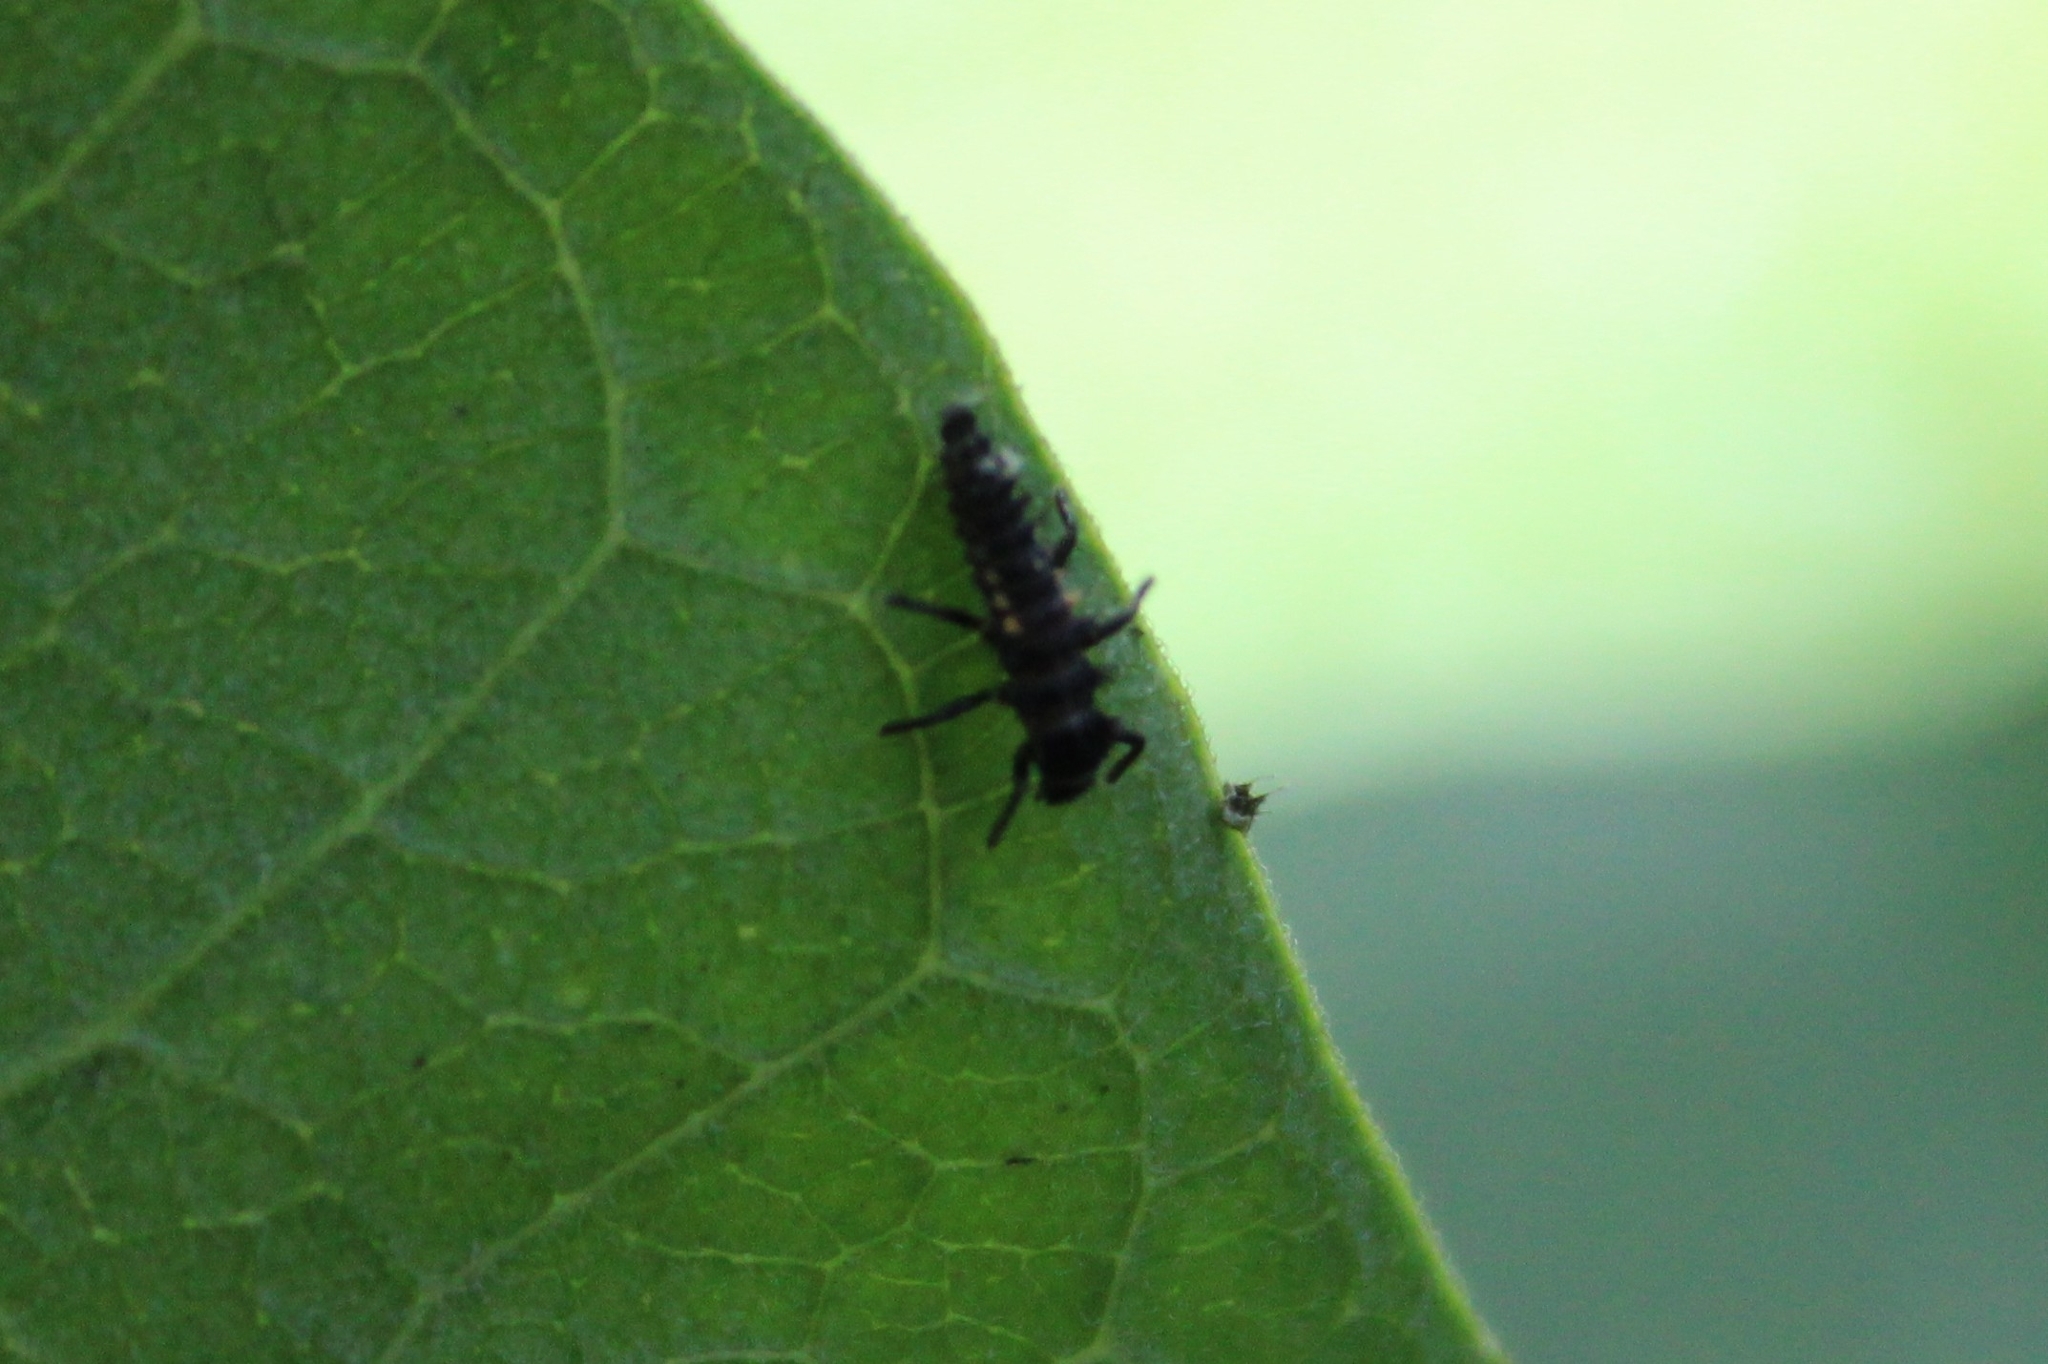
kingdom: Animalia
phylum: Arthropoda
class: Insecta
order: Coleoptera
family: Coccinellidae
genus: Harmonia
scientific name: Harmonia axyridis
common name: Harlequin ladybird
